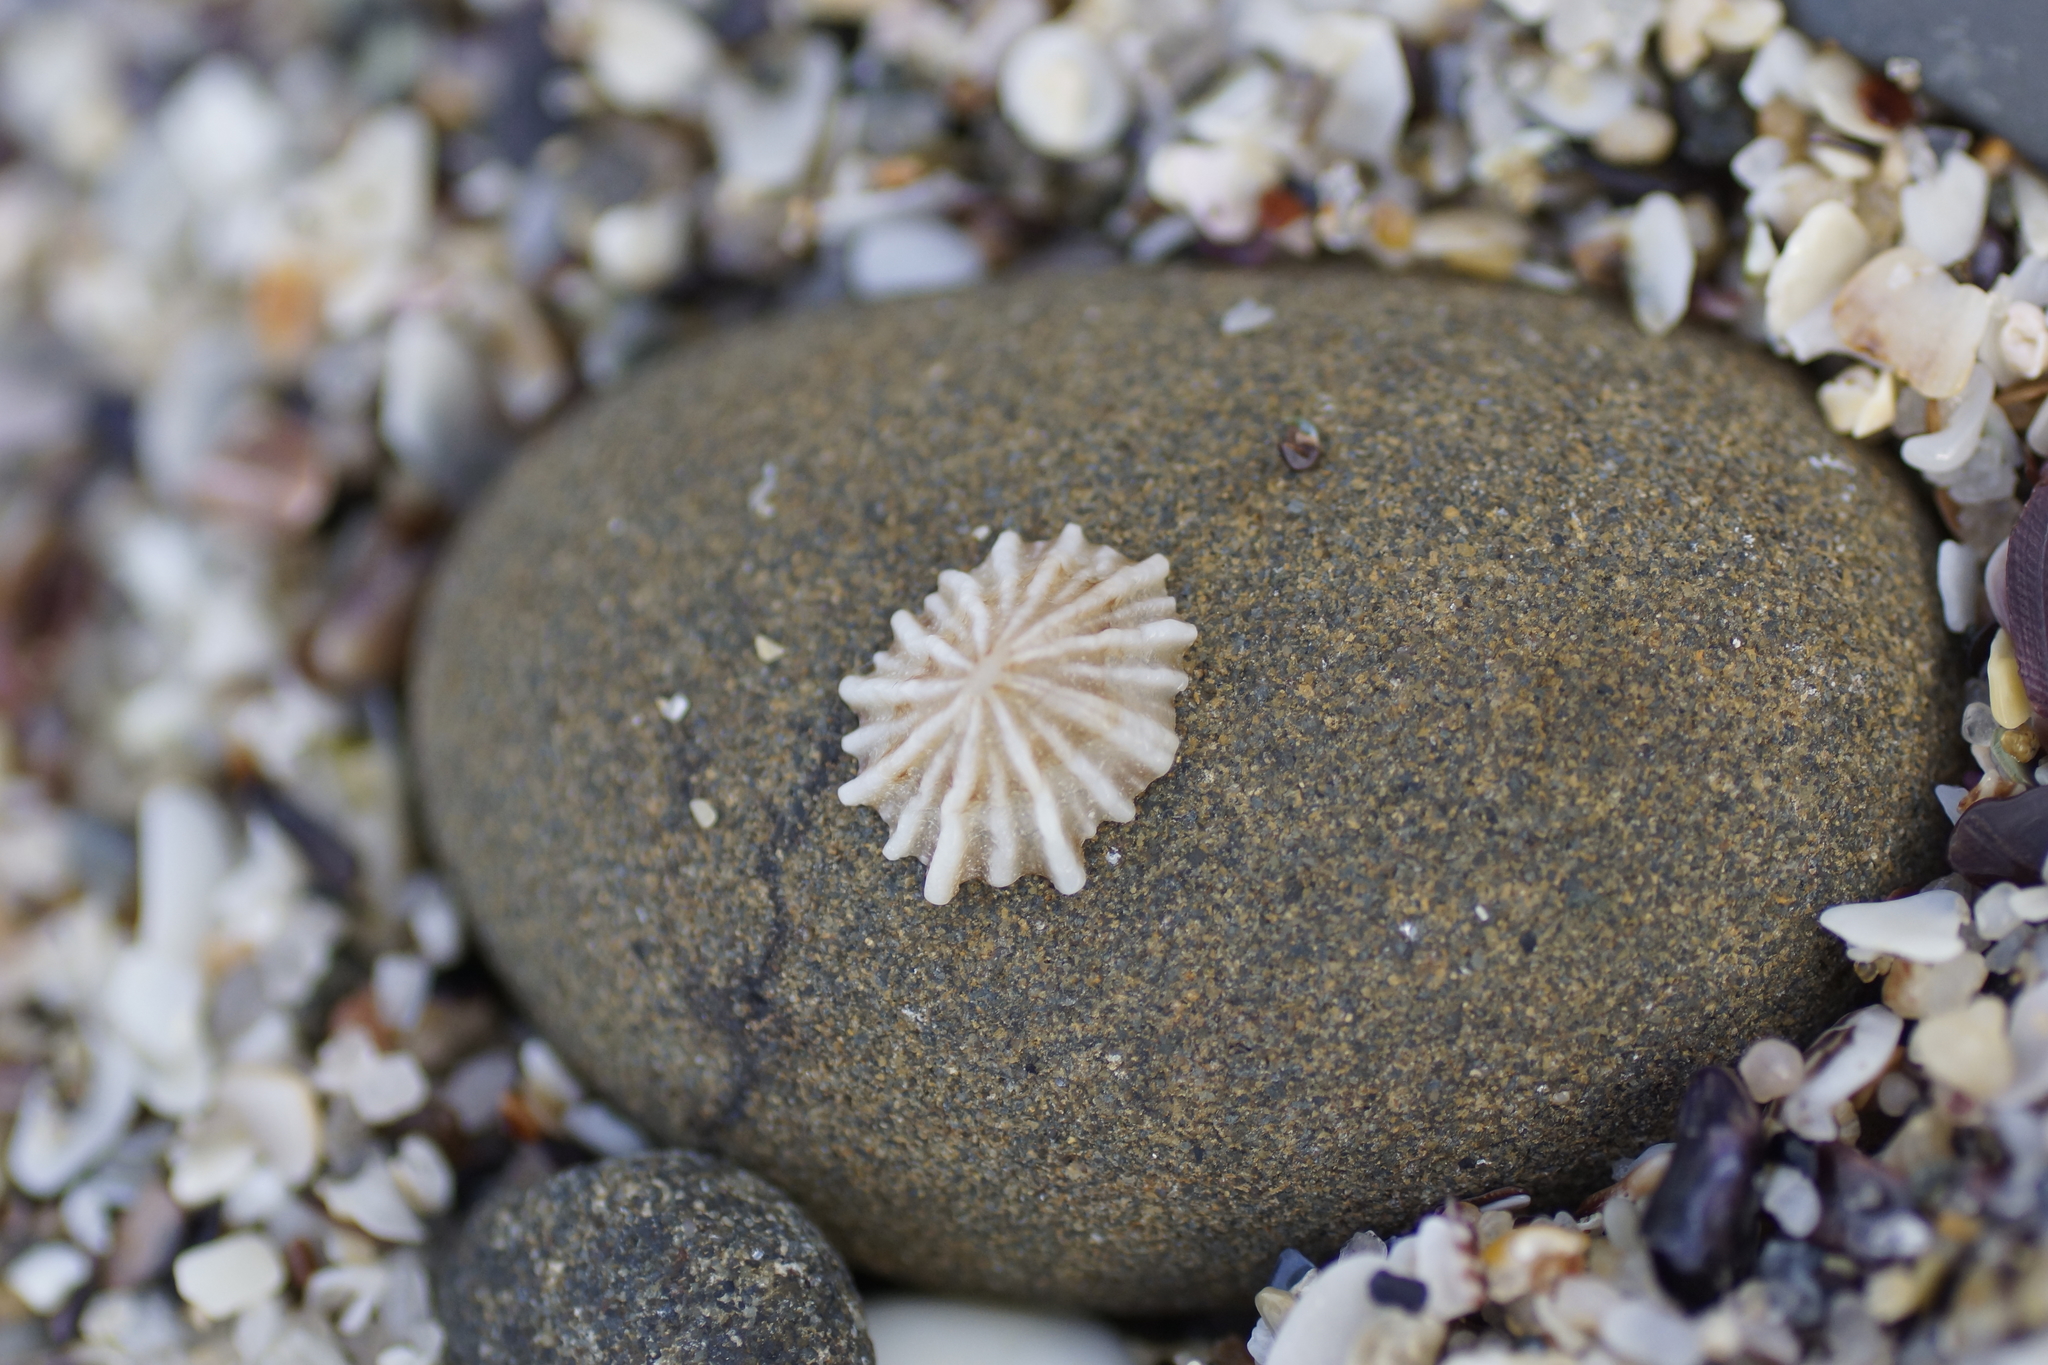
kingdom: Animalia
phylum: Mollusca
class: Gastropoda
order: Siphonariida
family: Siphonariidae
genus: Siphonaria
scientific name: Siphonaria diemenensis
